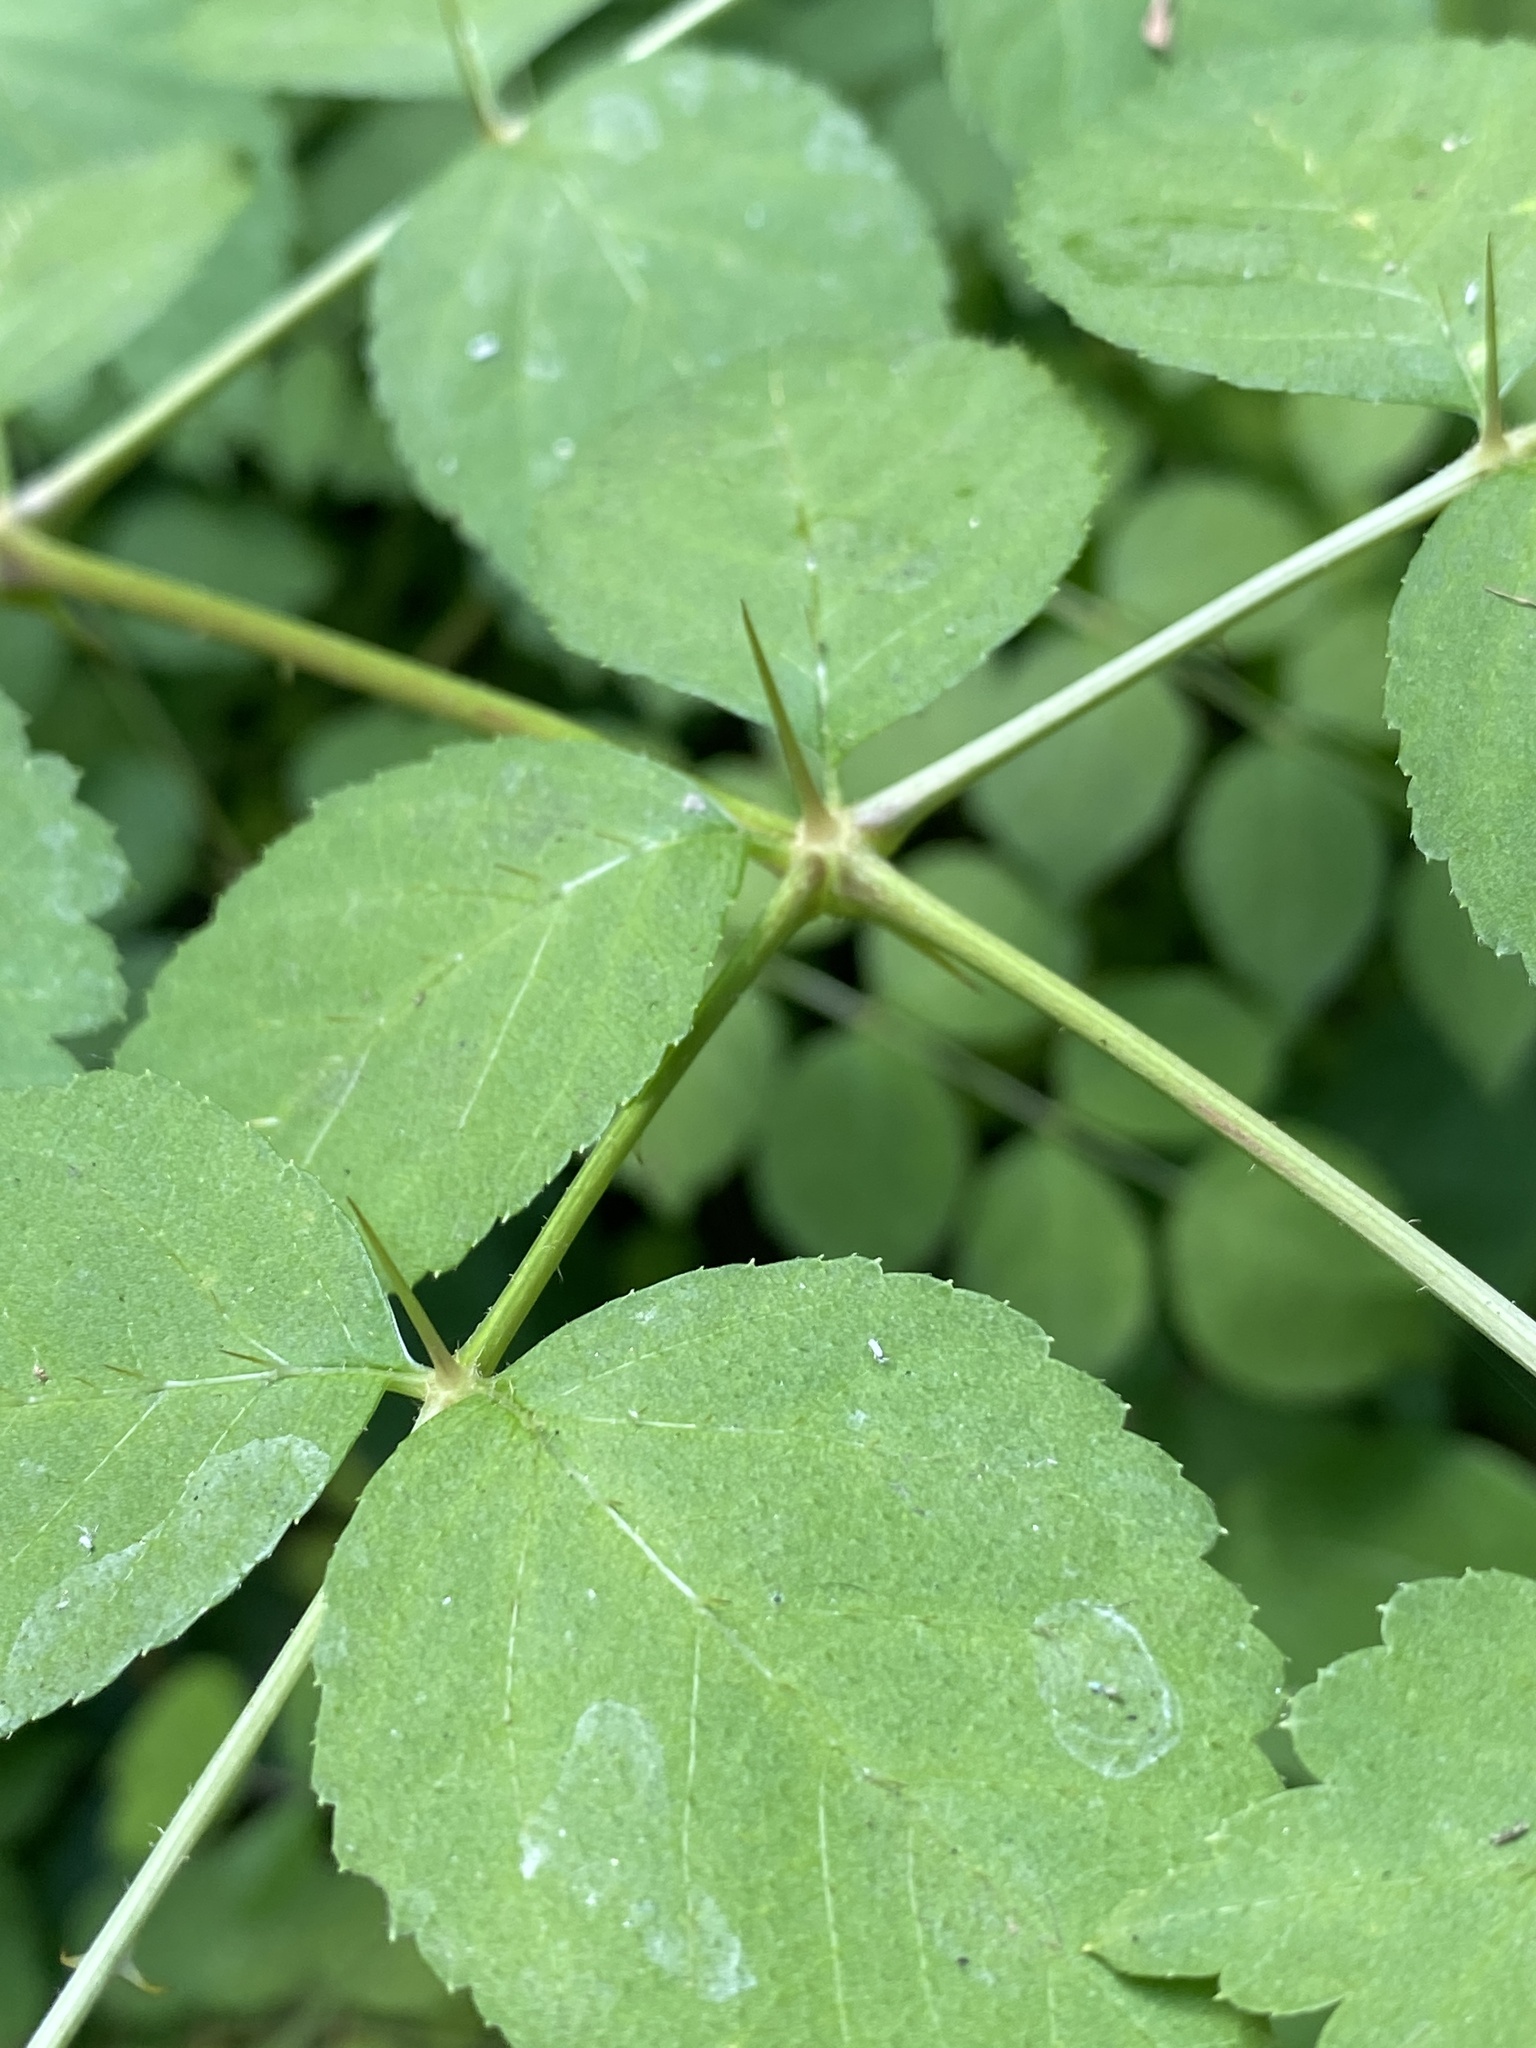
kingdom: Plantae
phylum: Tracheophyta
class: Magnoliopsida
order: Apiales
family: Araliaceae
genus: Aralia
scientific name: Aralia elata
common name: Japanese angelica-tree
